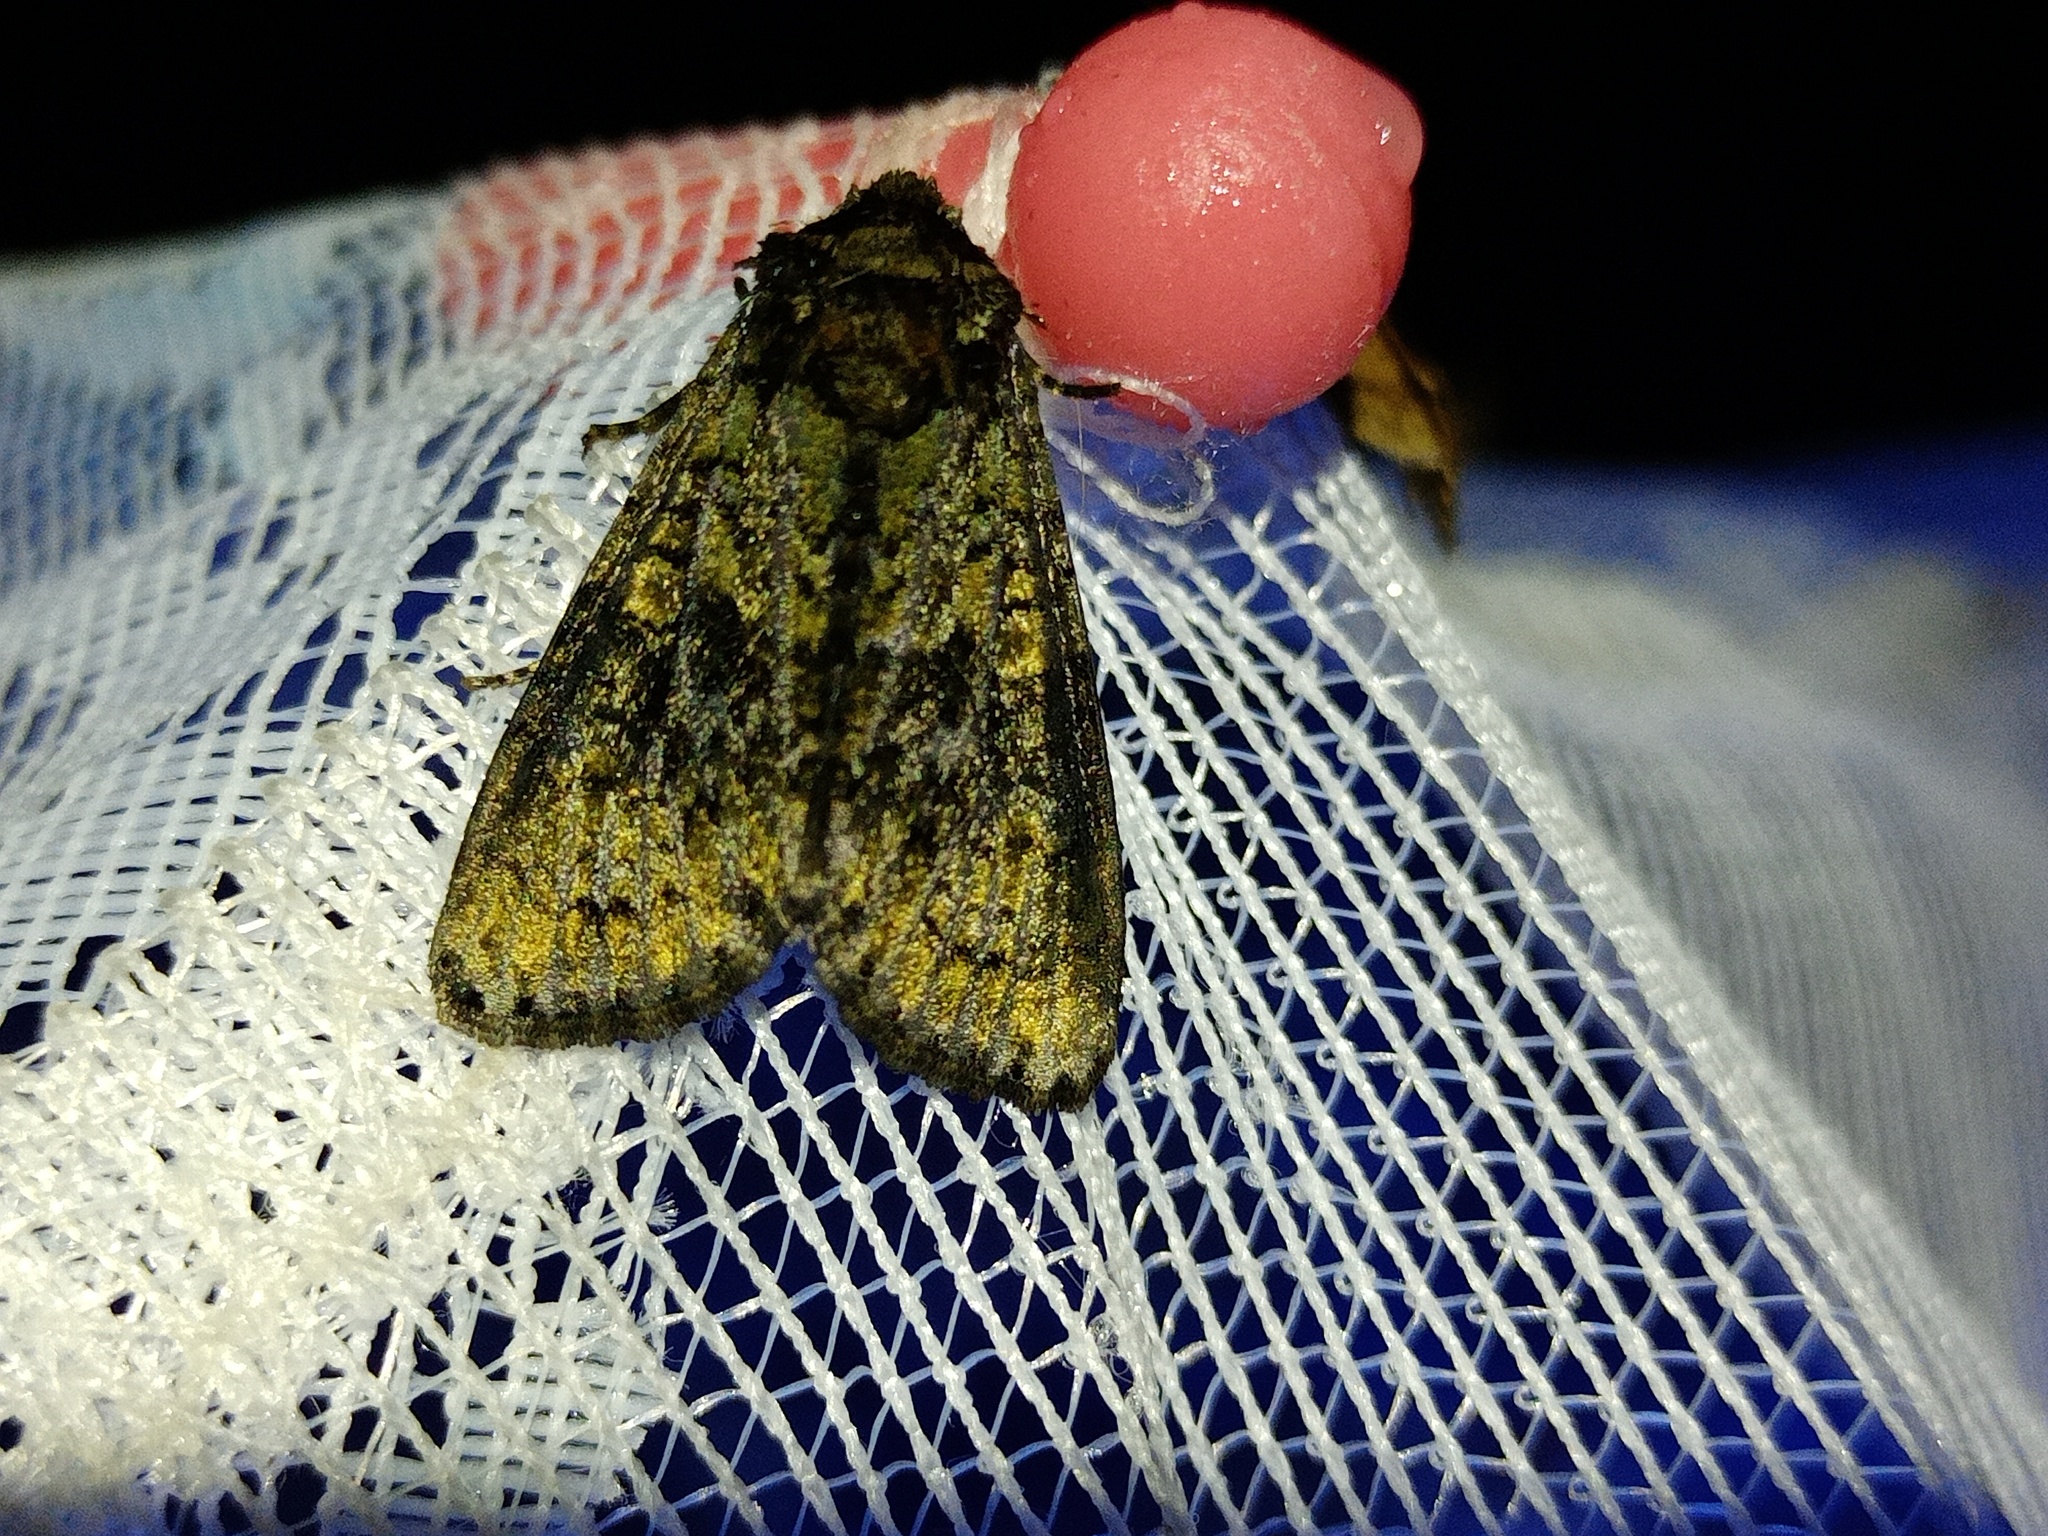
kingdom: Animalia
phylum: Arthropoda
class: Insecta
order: Lepidoptera
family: Noctuidae
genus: Craniophora
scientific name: Craniophora ligustri
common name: Coronet
